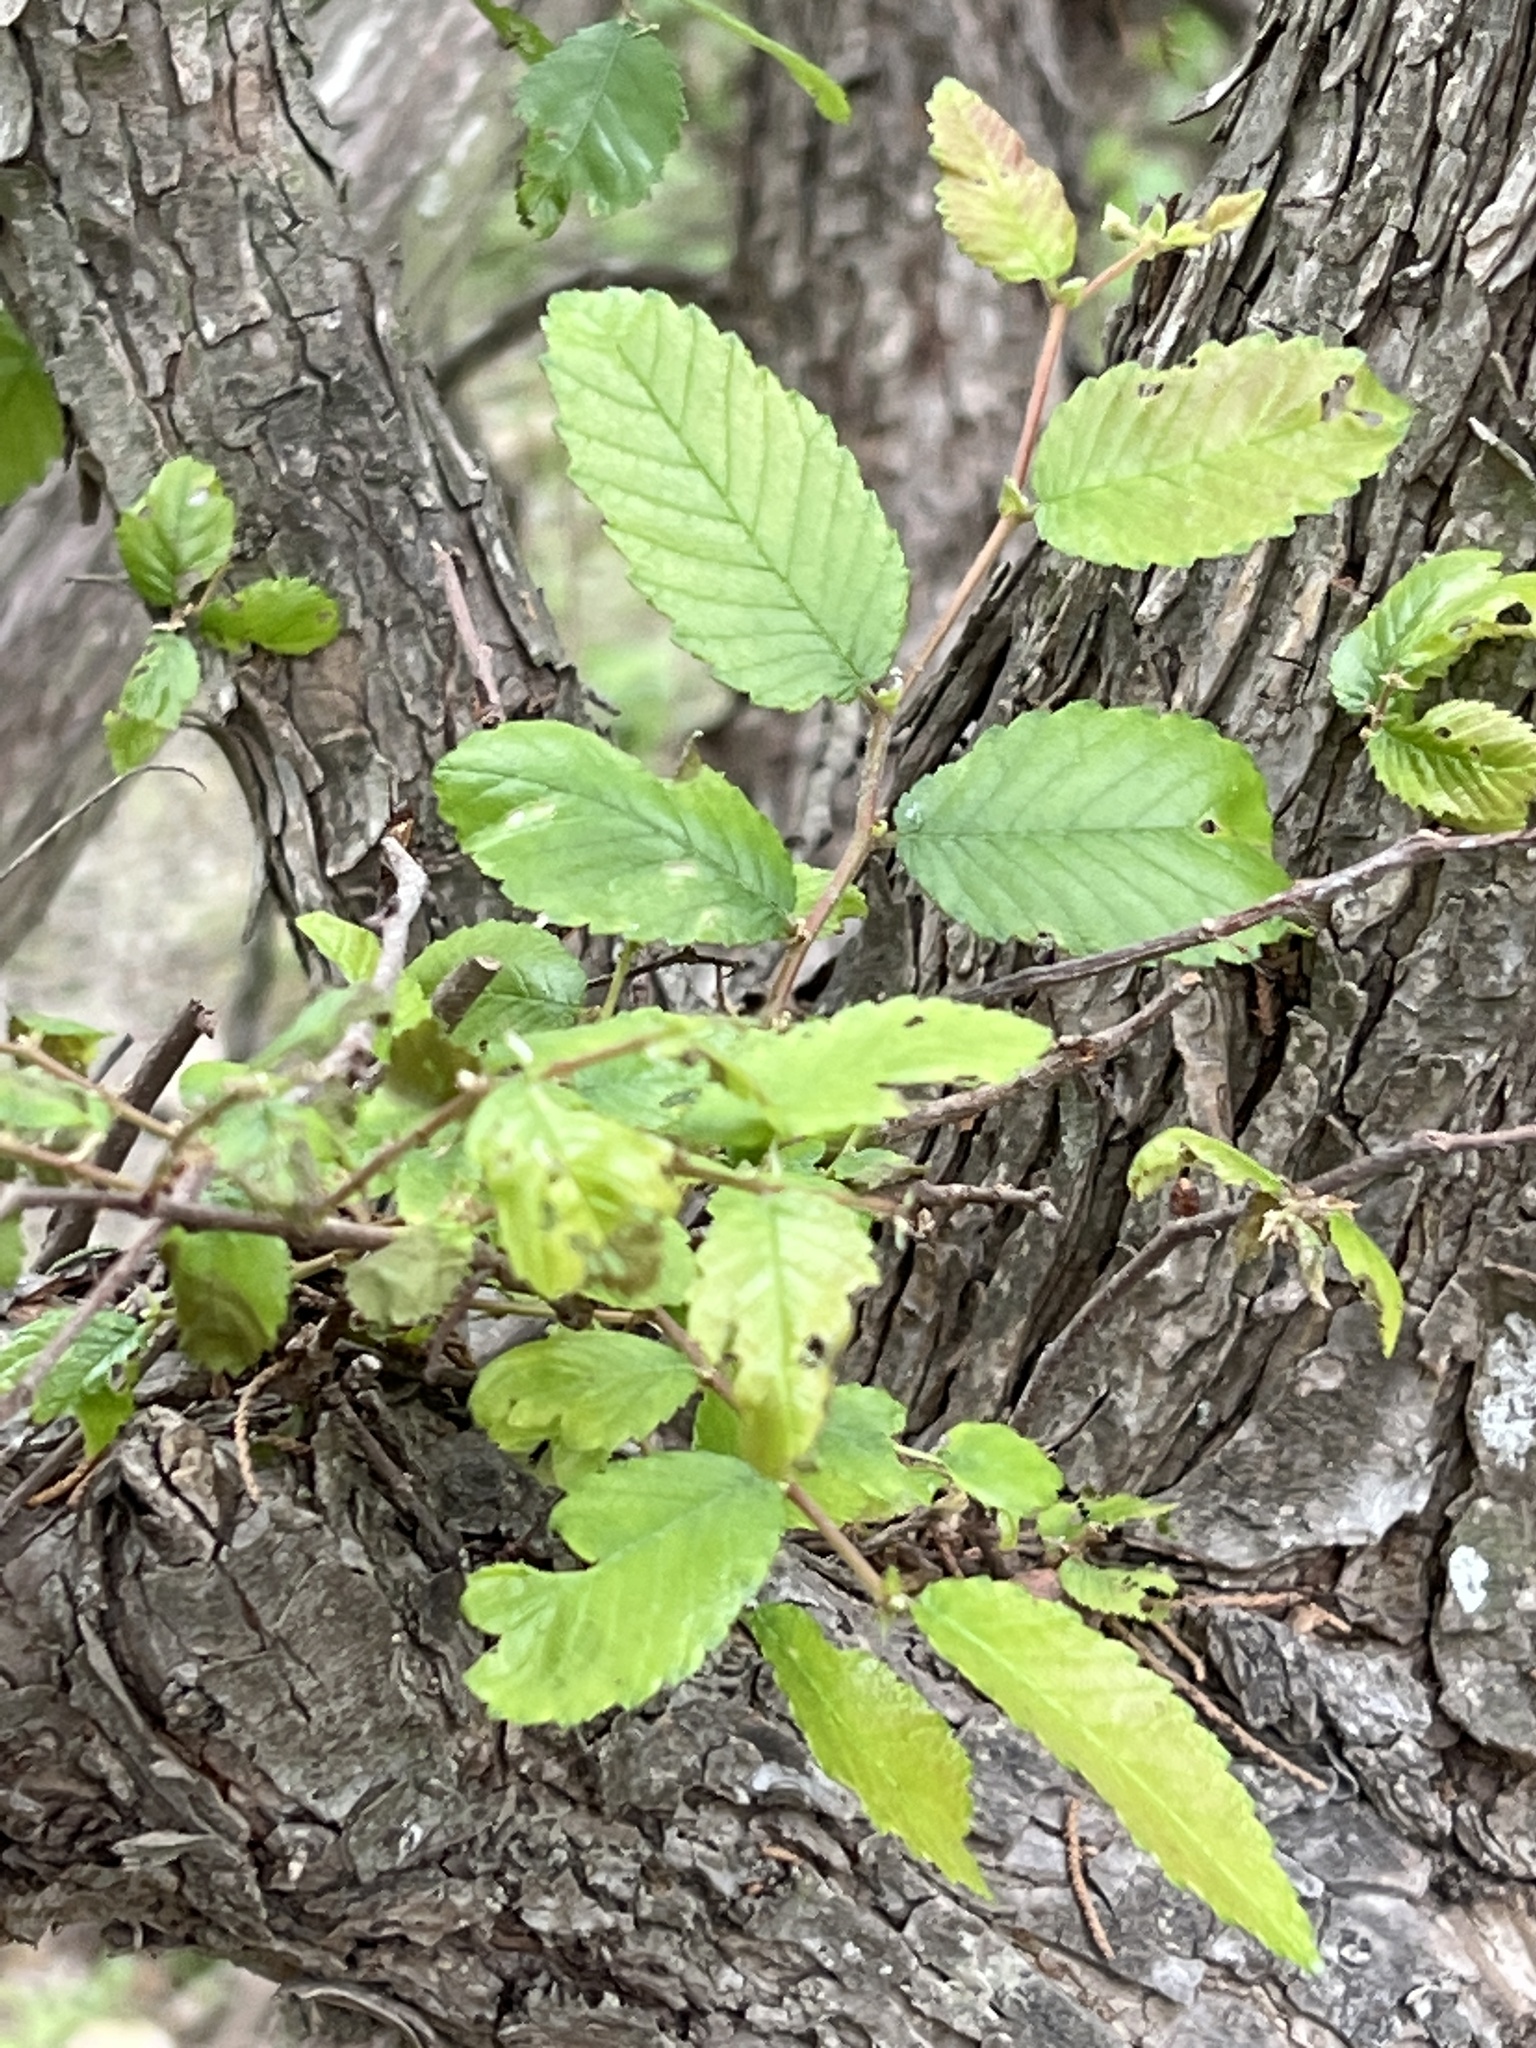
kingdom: Plantae
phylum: Tracheophyta
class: Magnoliopsida
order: Rosales
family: Ulmaceae
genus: Ulmus
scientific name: Ulmus crassifolia
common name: Basket elm
